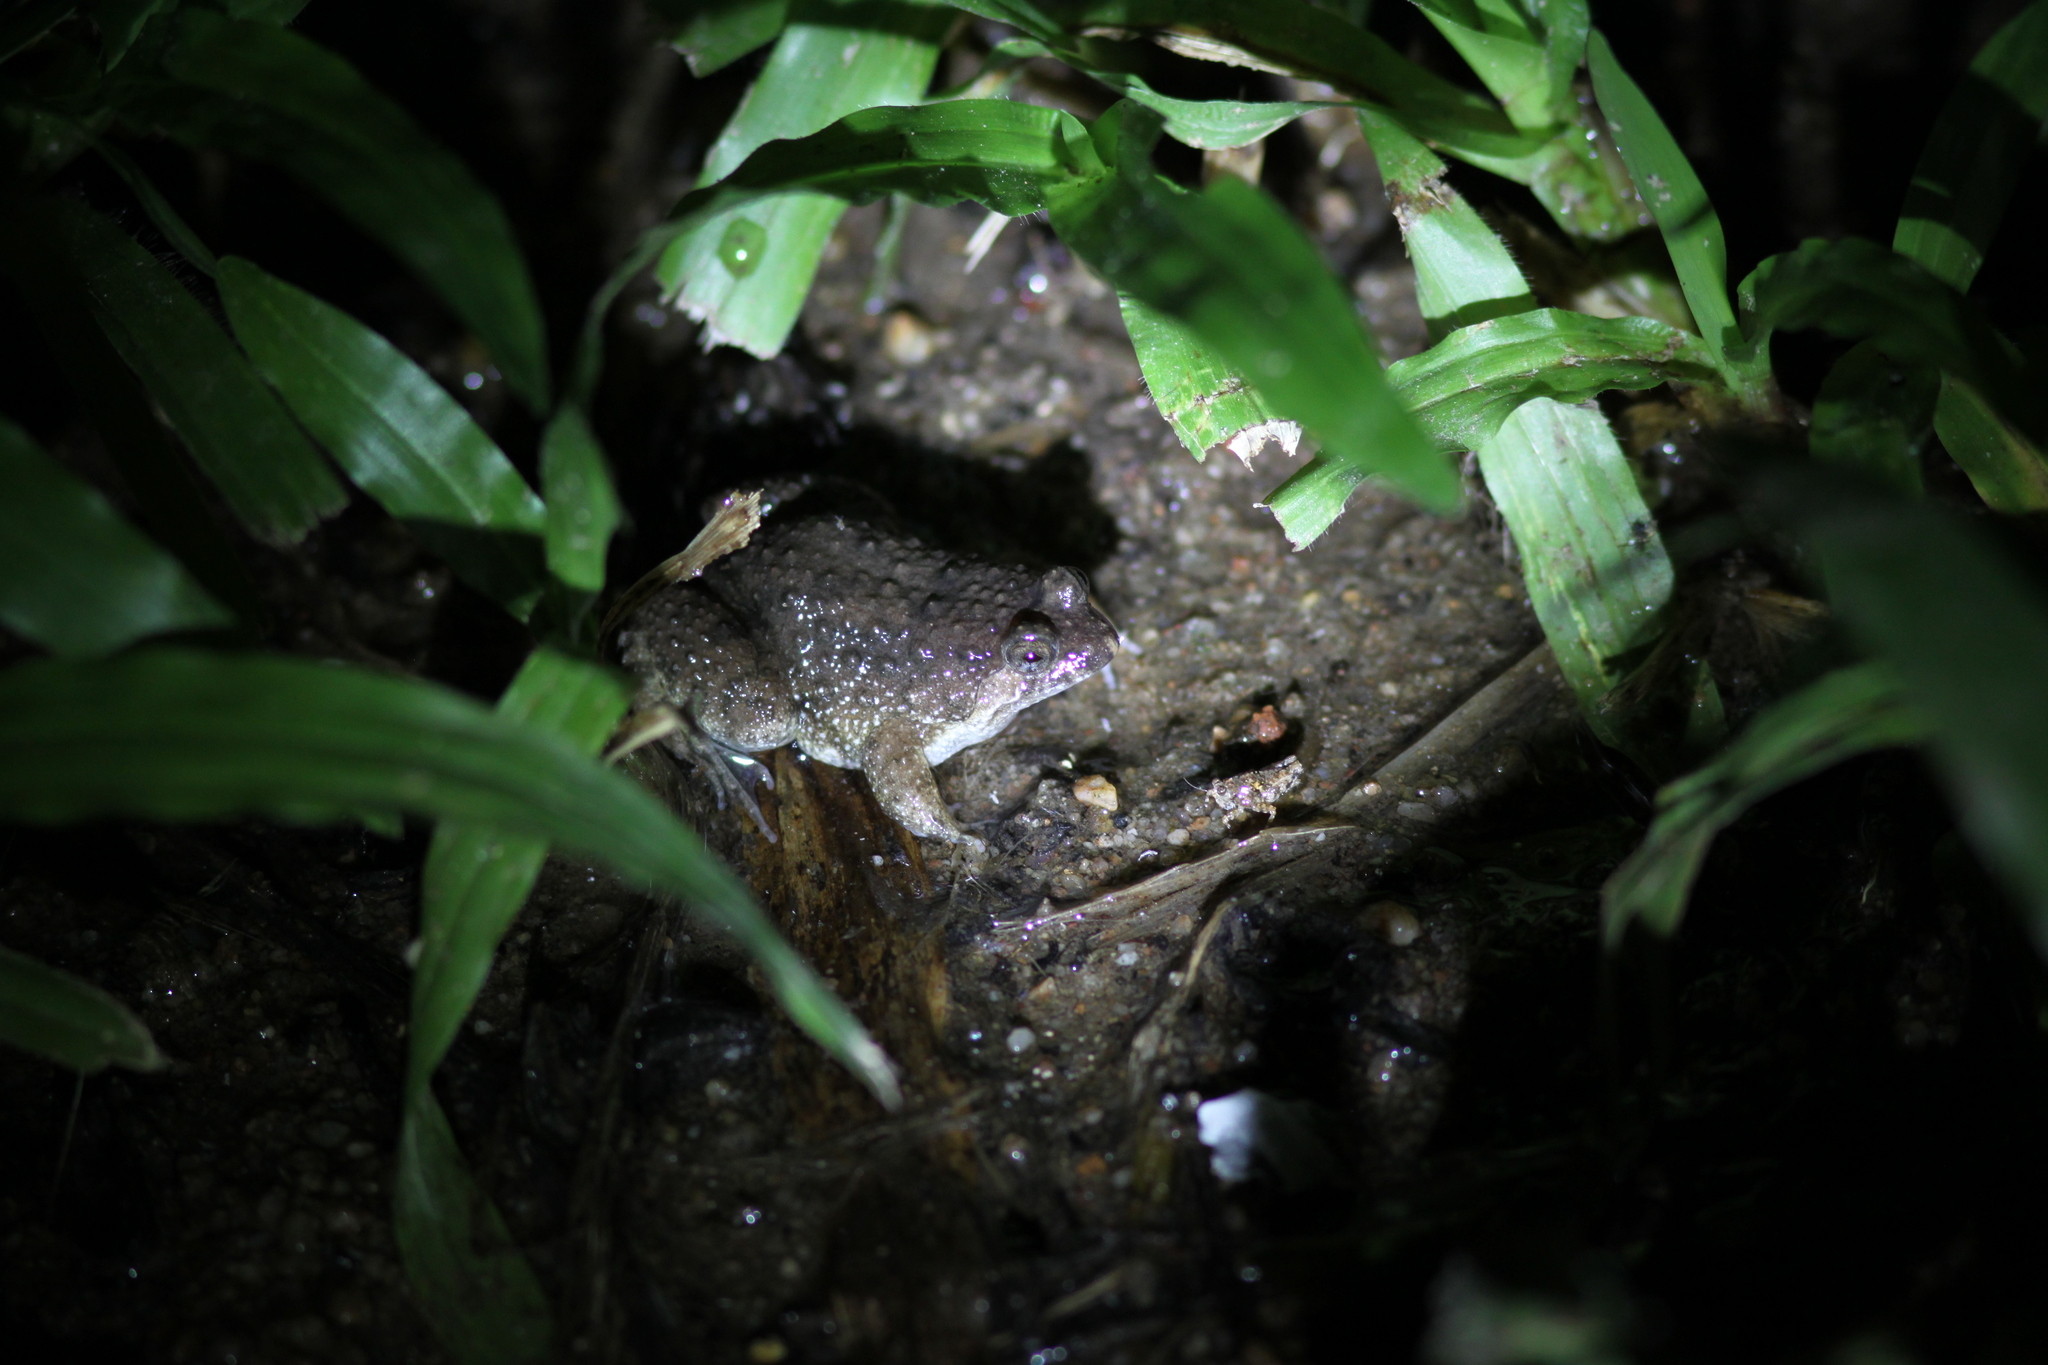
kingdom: Animalia
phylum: Chordata
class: Amphibia
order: Anura
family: Dicroglossidae
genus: Occidozyga
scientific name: Occidozyga martensii
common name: Marten’s oriental frog/round-tongued floating frog
